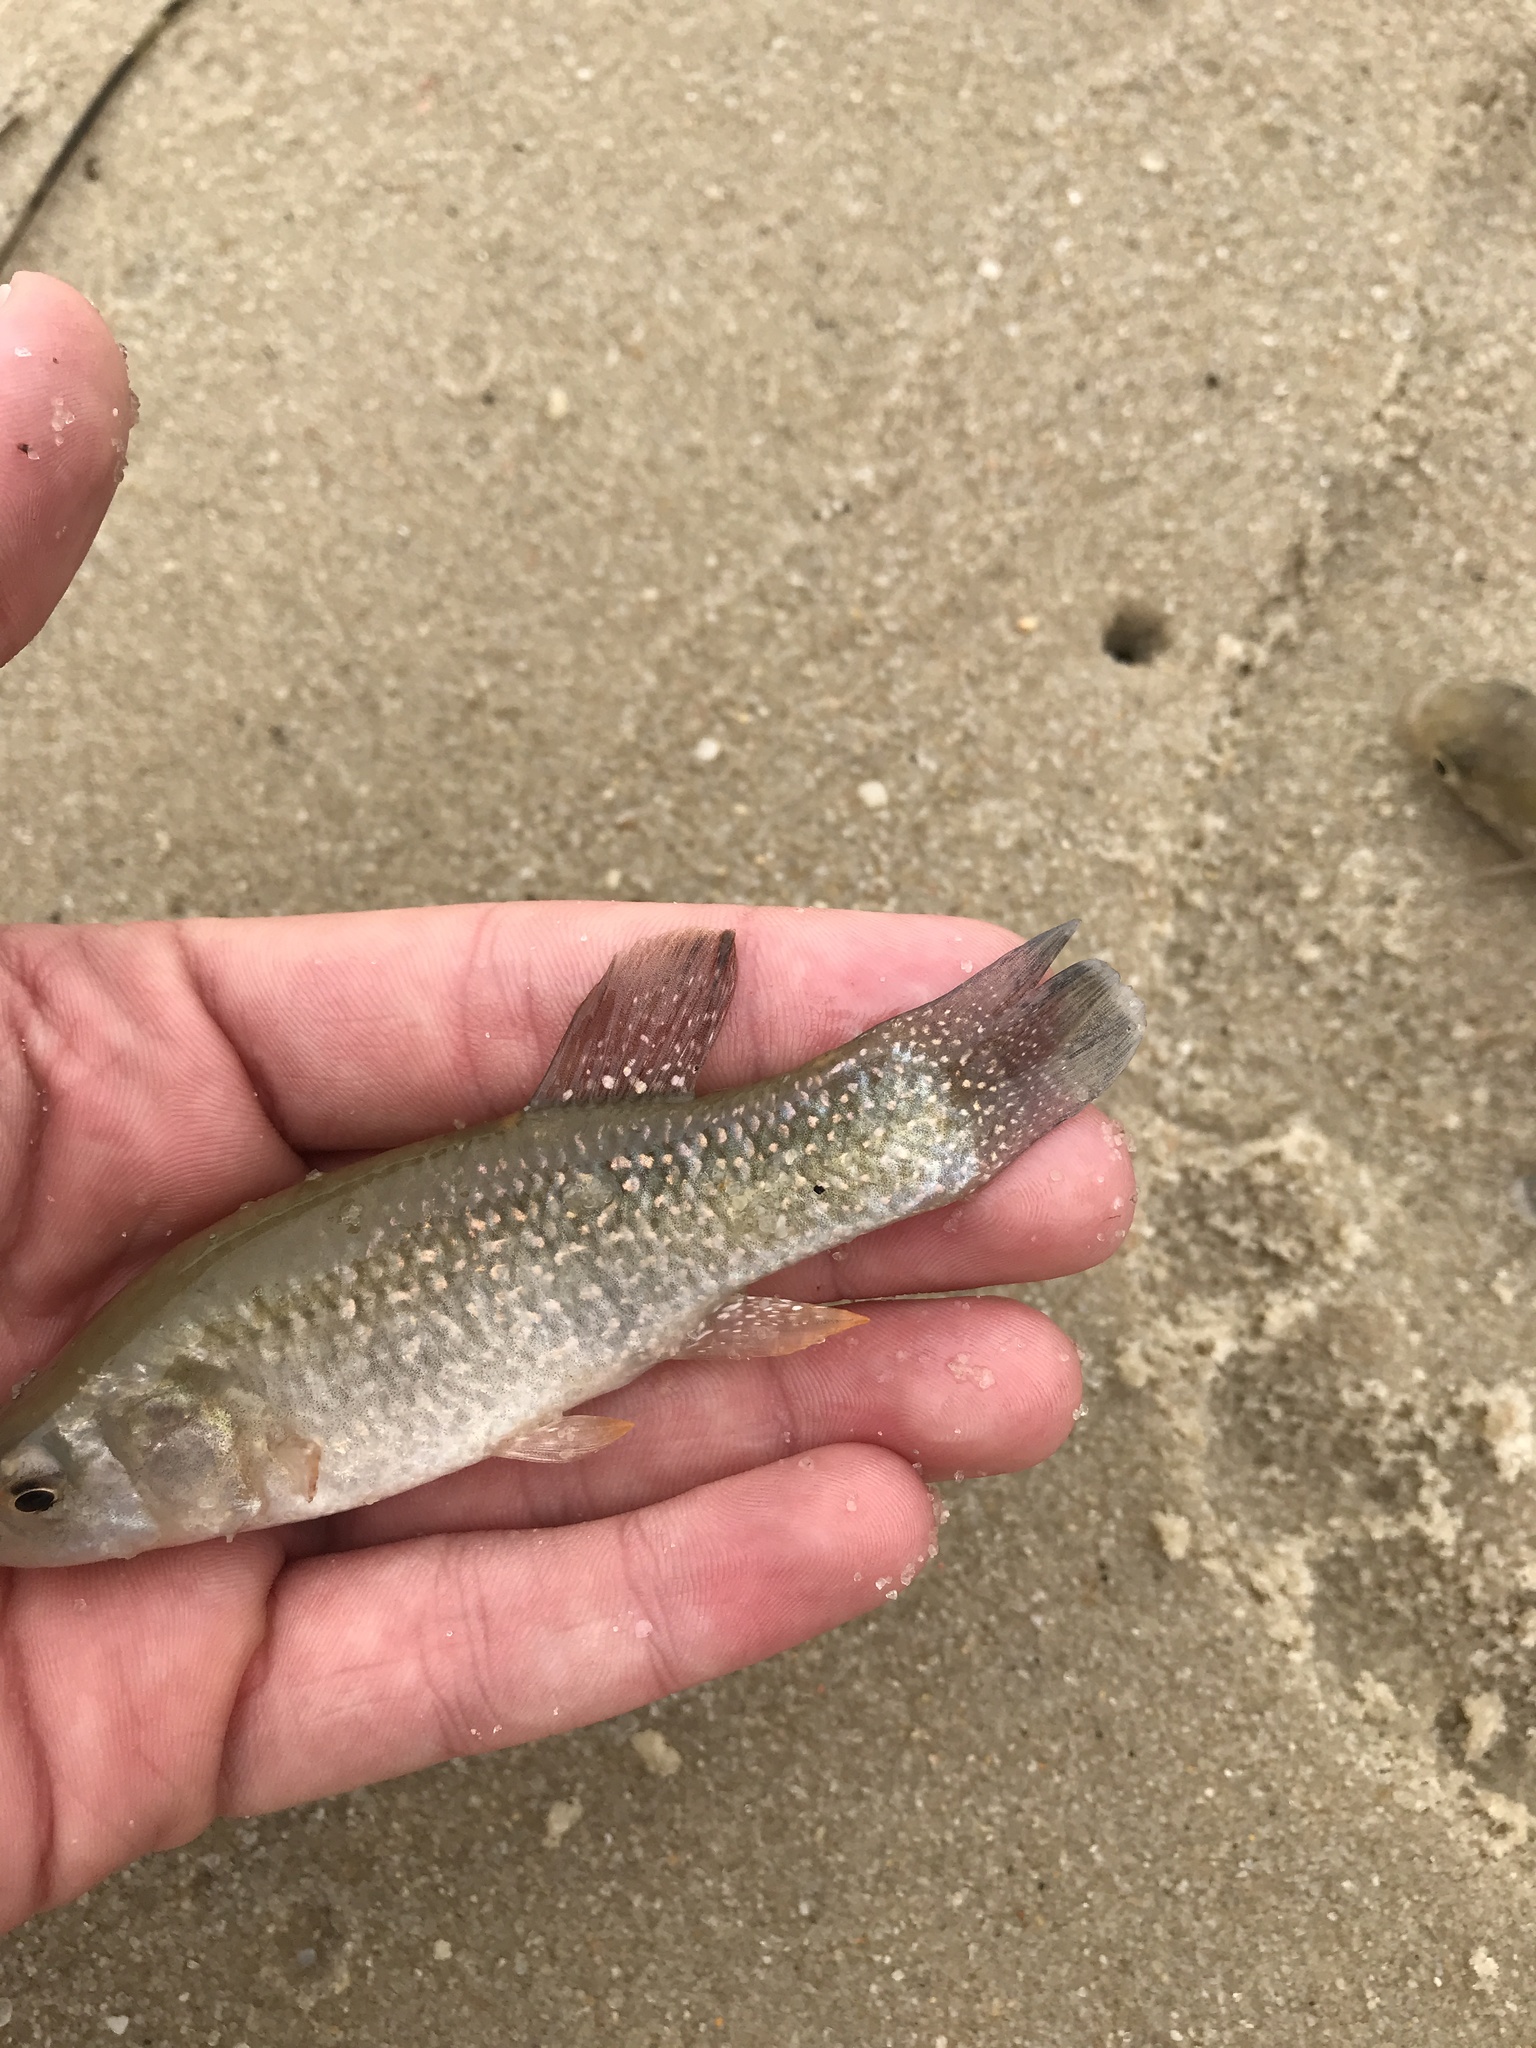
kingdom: Animalia
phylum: Chordata
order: Cyprinodontiformes
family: Fundulidae
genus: Fundulus
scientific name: Fundulus grandis
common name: Gulf killifish
